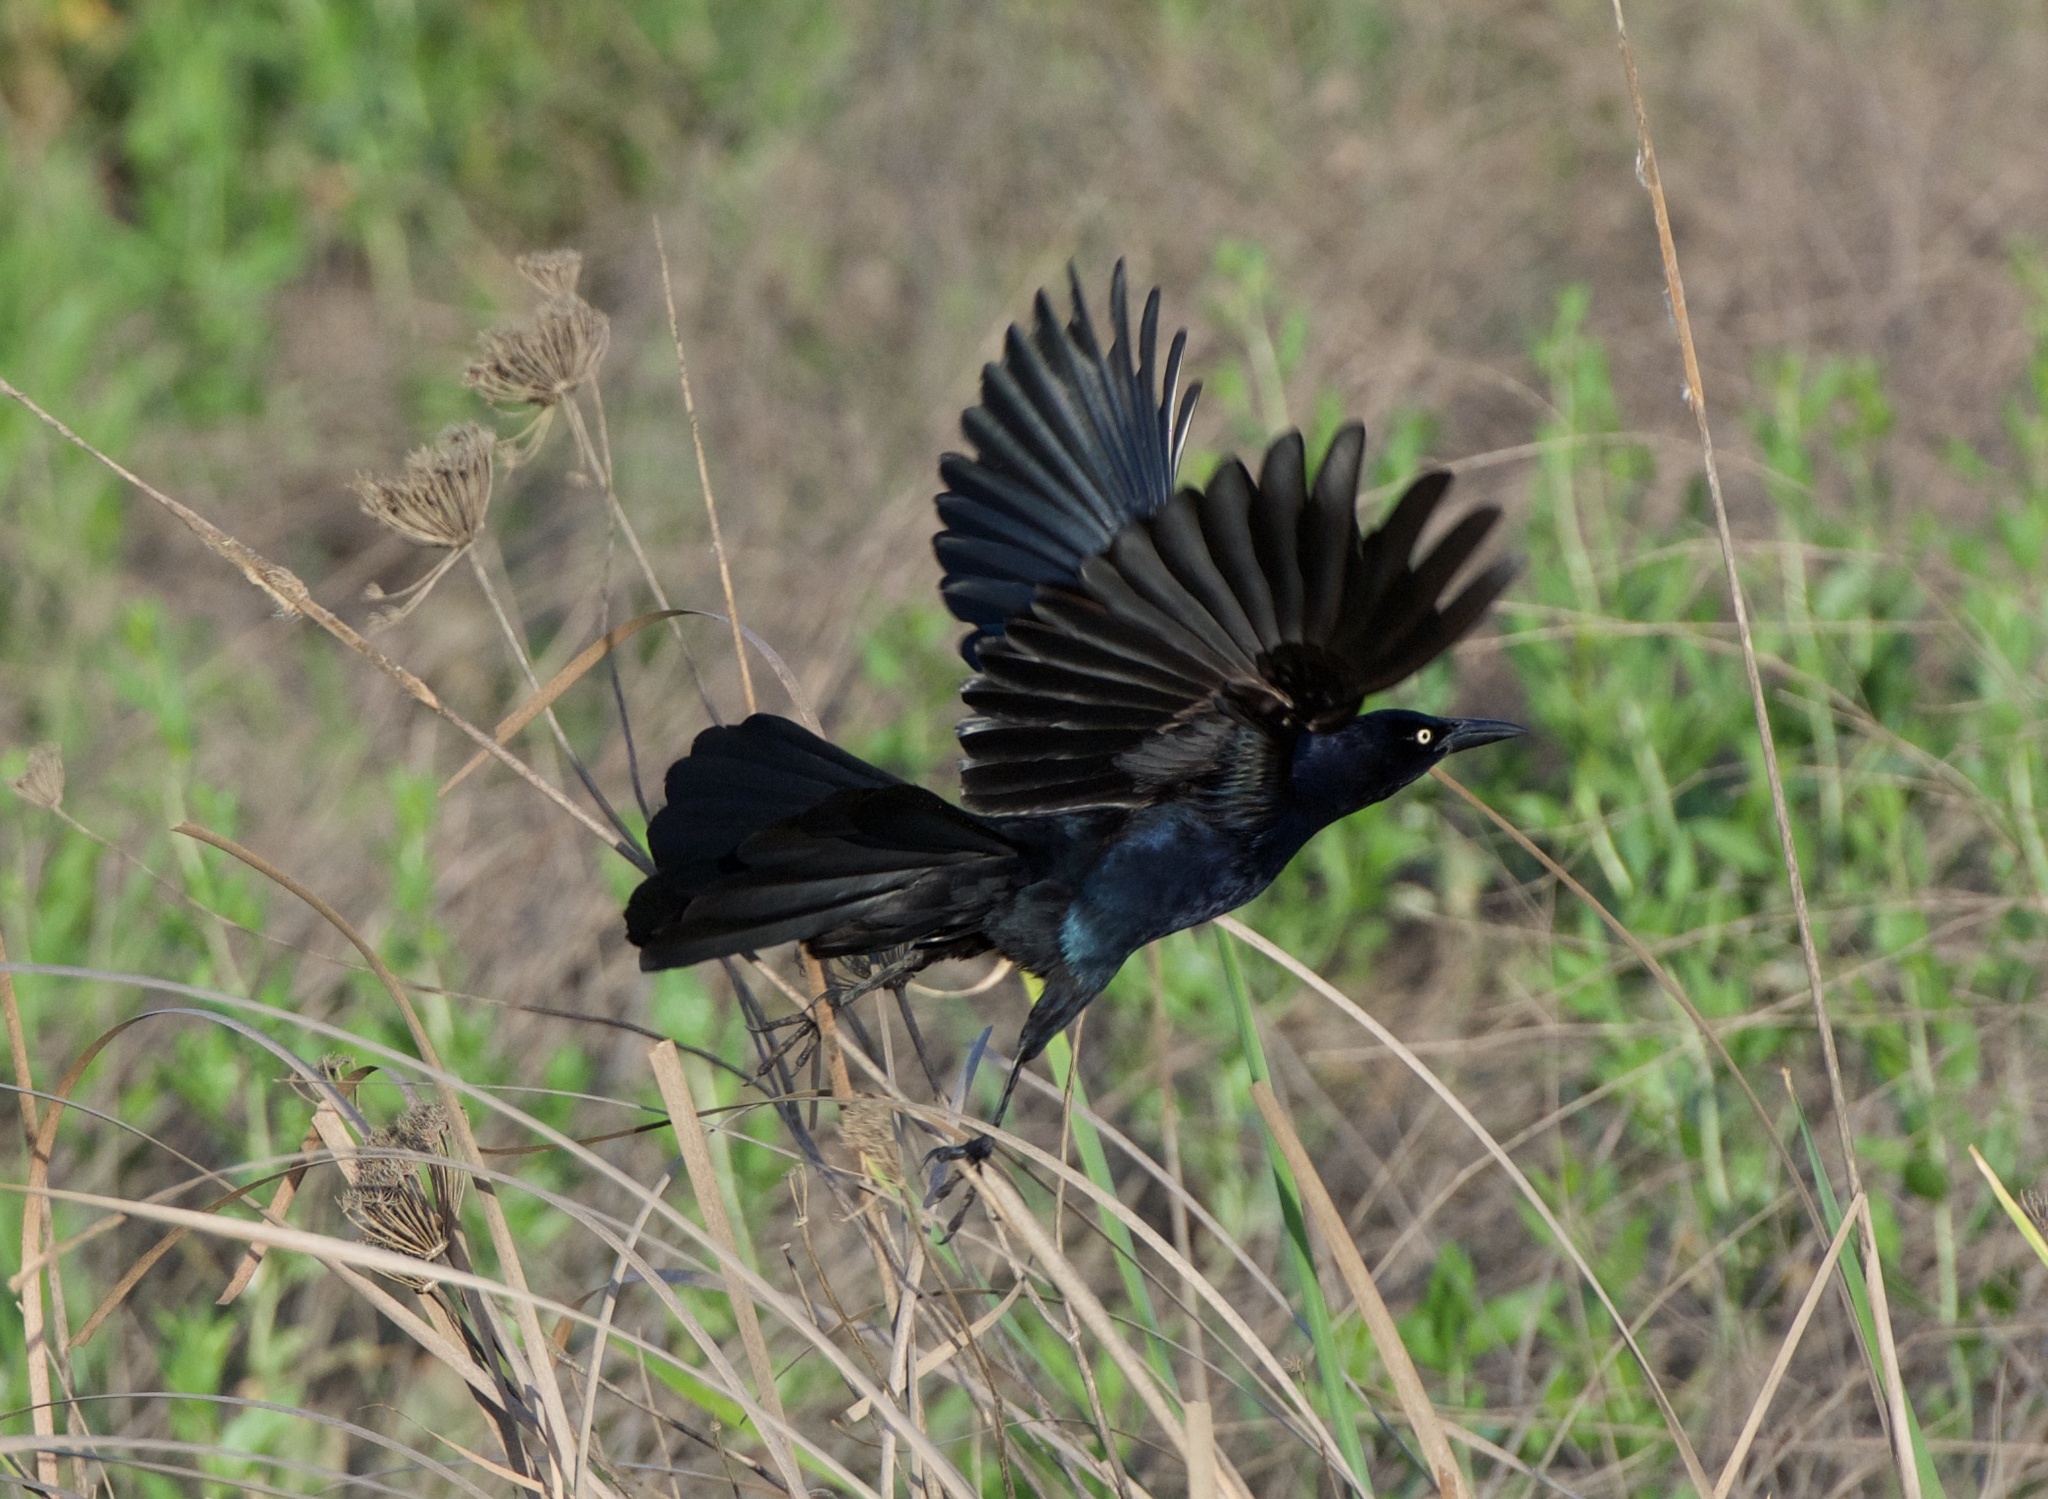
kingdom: Animalia
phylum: Chordata
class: Aves
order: Passeriformes
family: Icteridae
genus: Quiscalus
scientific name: Quiscalus mexicanus
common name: Great-tailed grackle
